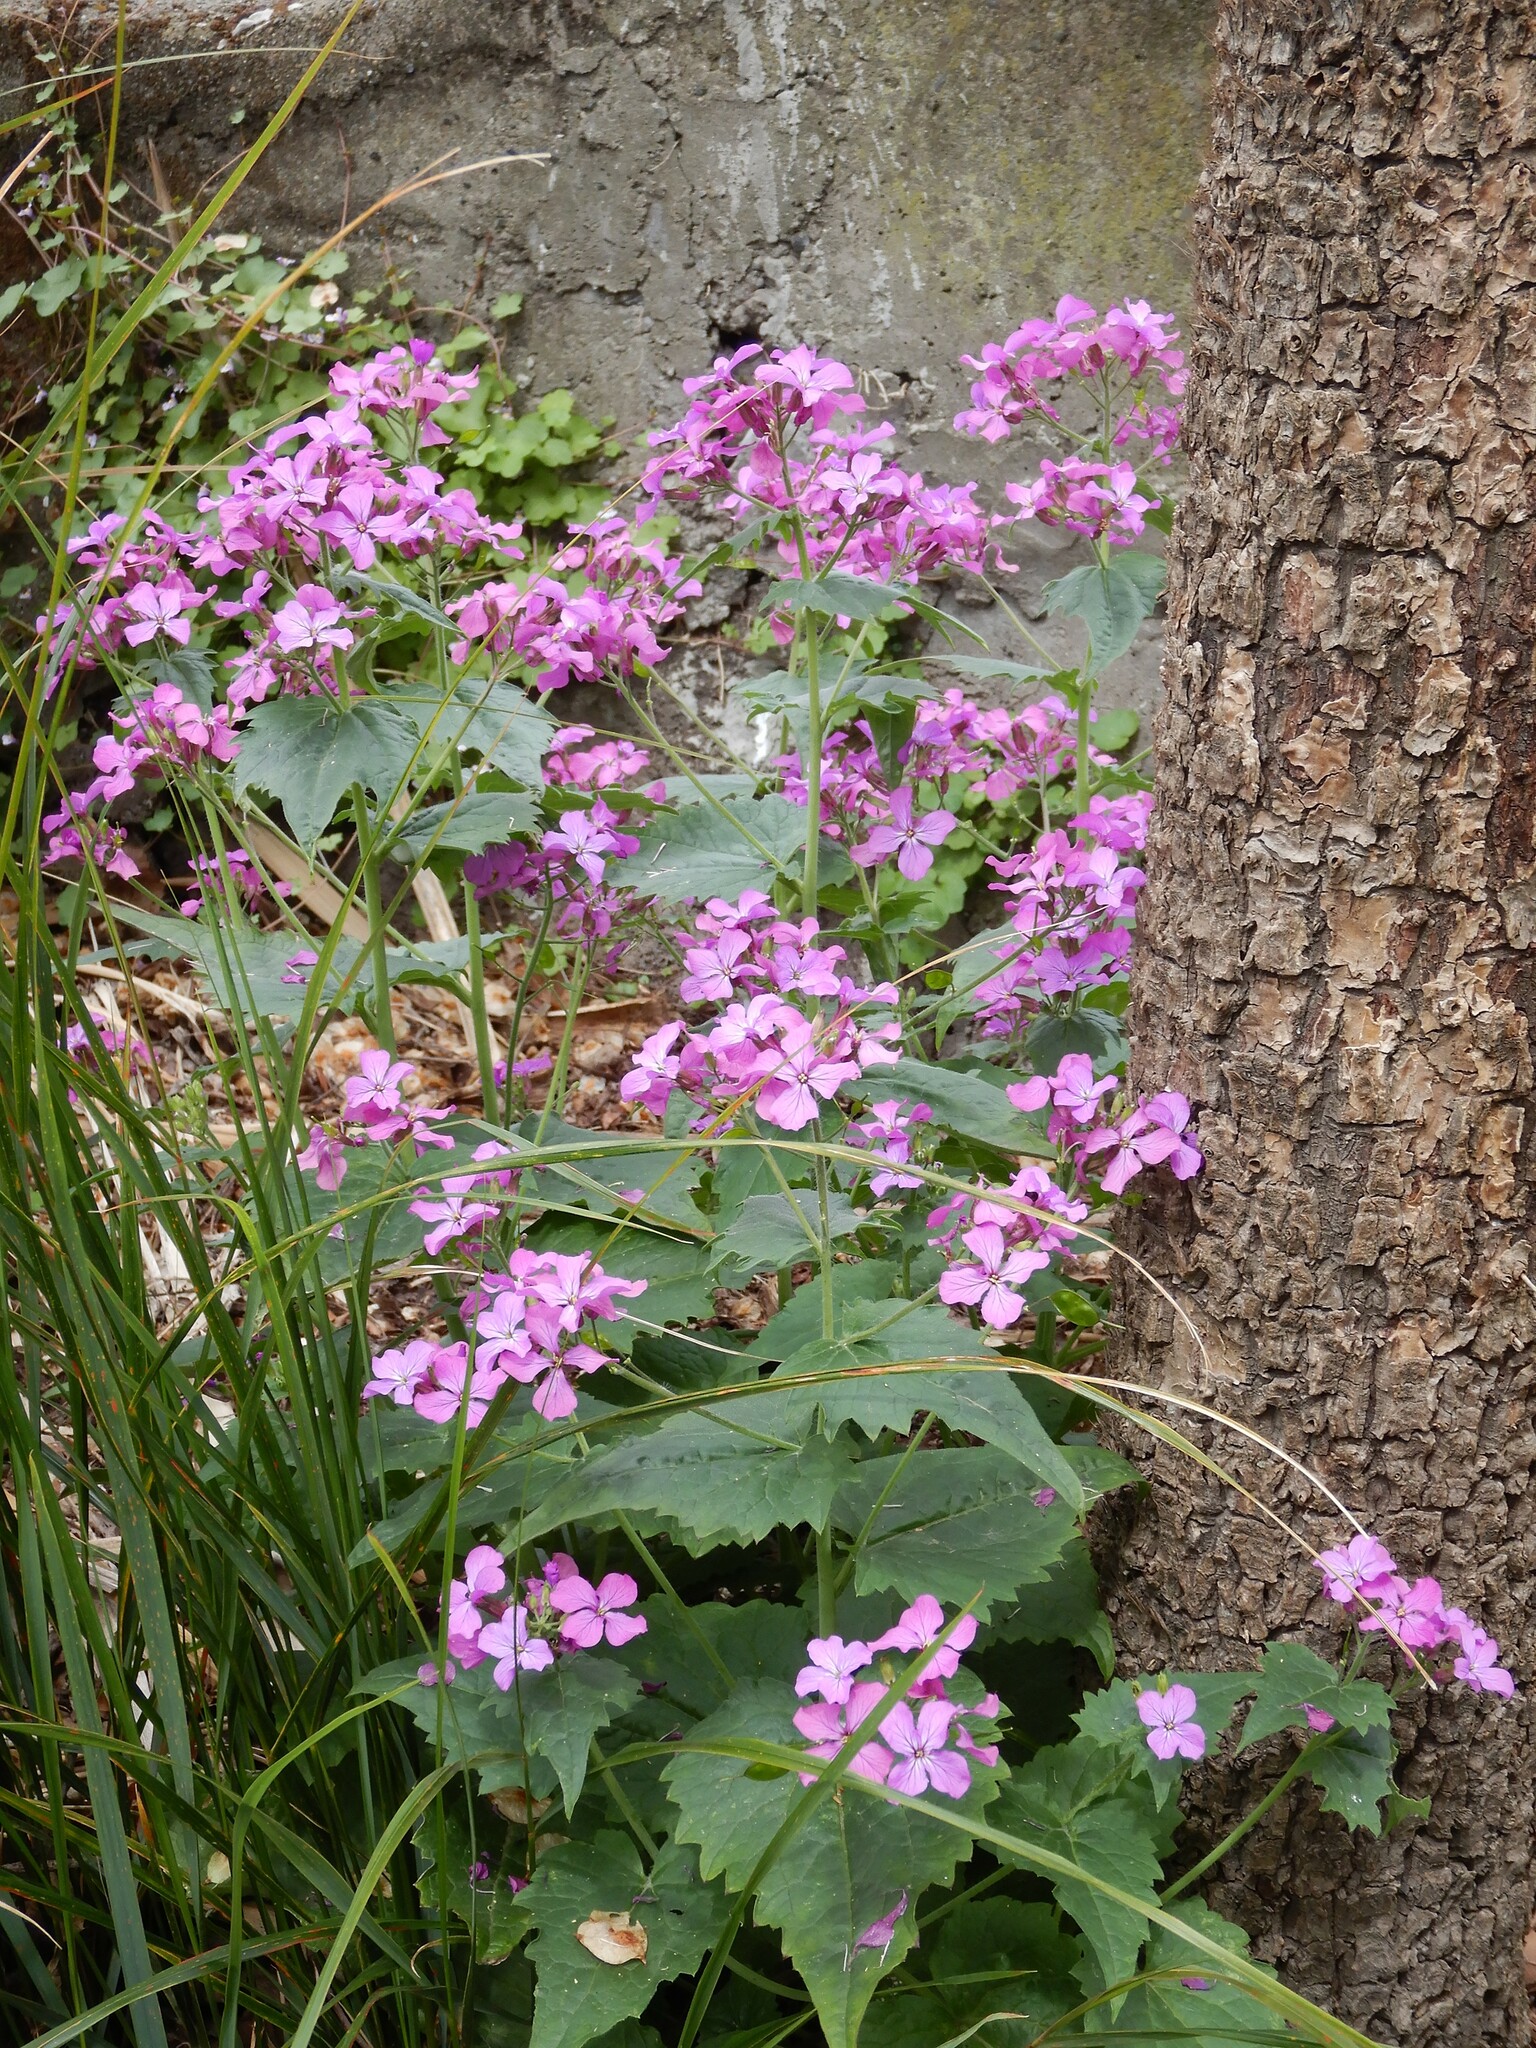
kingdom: Plantae
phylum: Tracheophyta
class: Magnoliopsida
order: Brassicales
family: Brassicaceae
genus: Lunaria
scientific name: Lunaria annua
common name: Honesty
